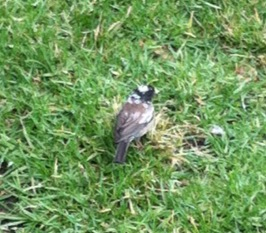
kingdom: Animalia
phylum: Chordata
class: Aves
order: Passeriformes
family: Passerellidae
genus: Junco
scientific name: Junco hyemalis
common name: Dark-eyed junco
